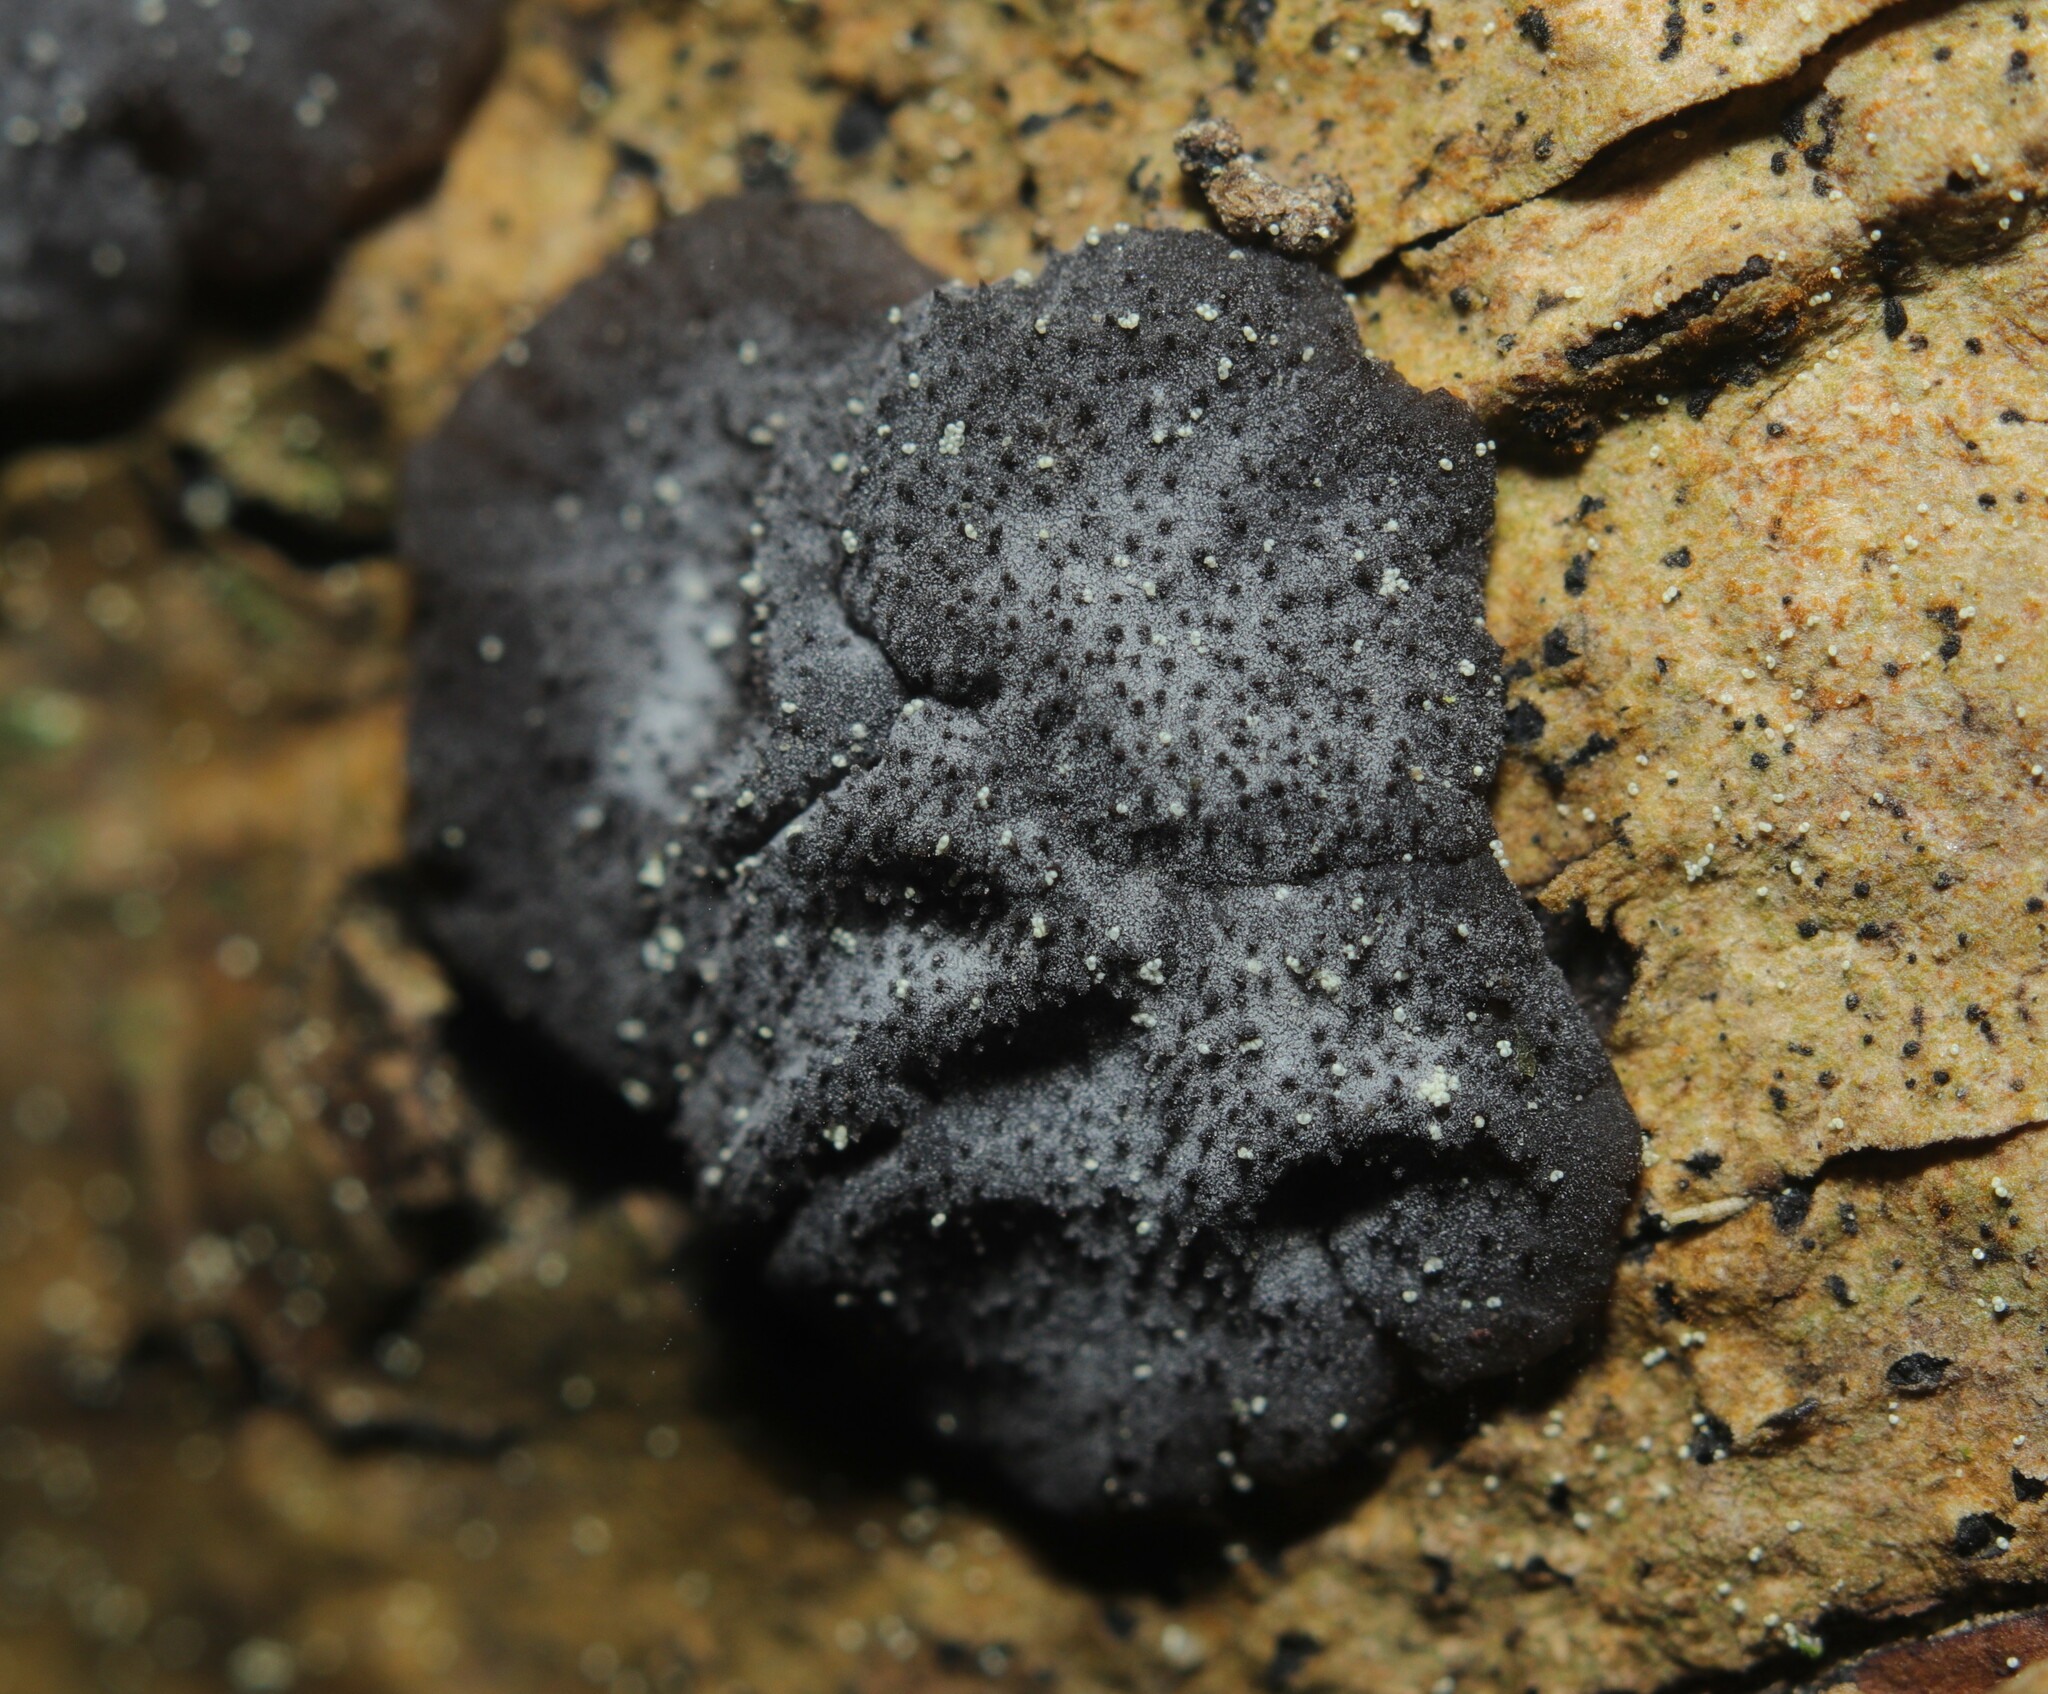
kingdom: Fungi
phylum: Basidiomycota
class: Agaricomycetes
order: Auriculariales
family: Auriculariaceae
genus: Tremellochaete
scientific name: Tremellochaete
